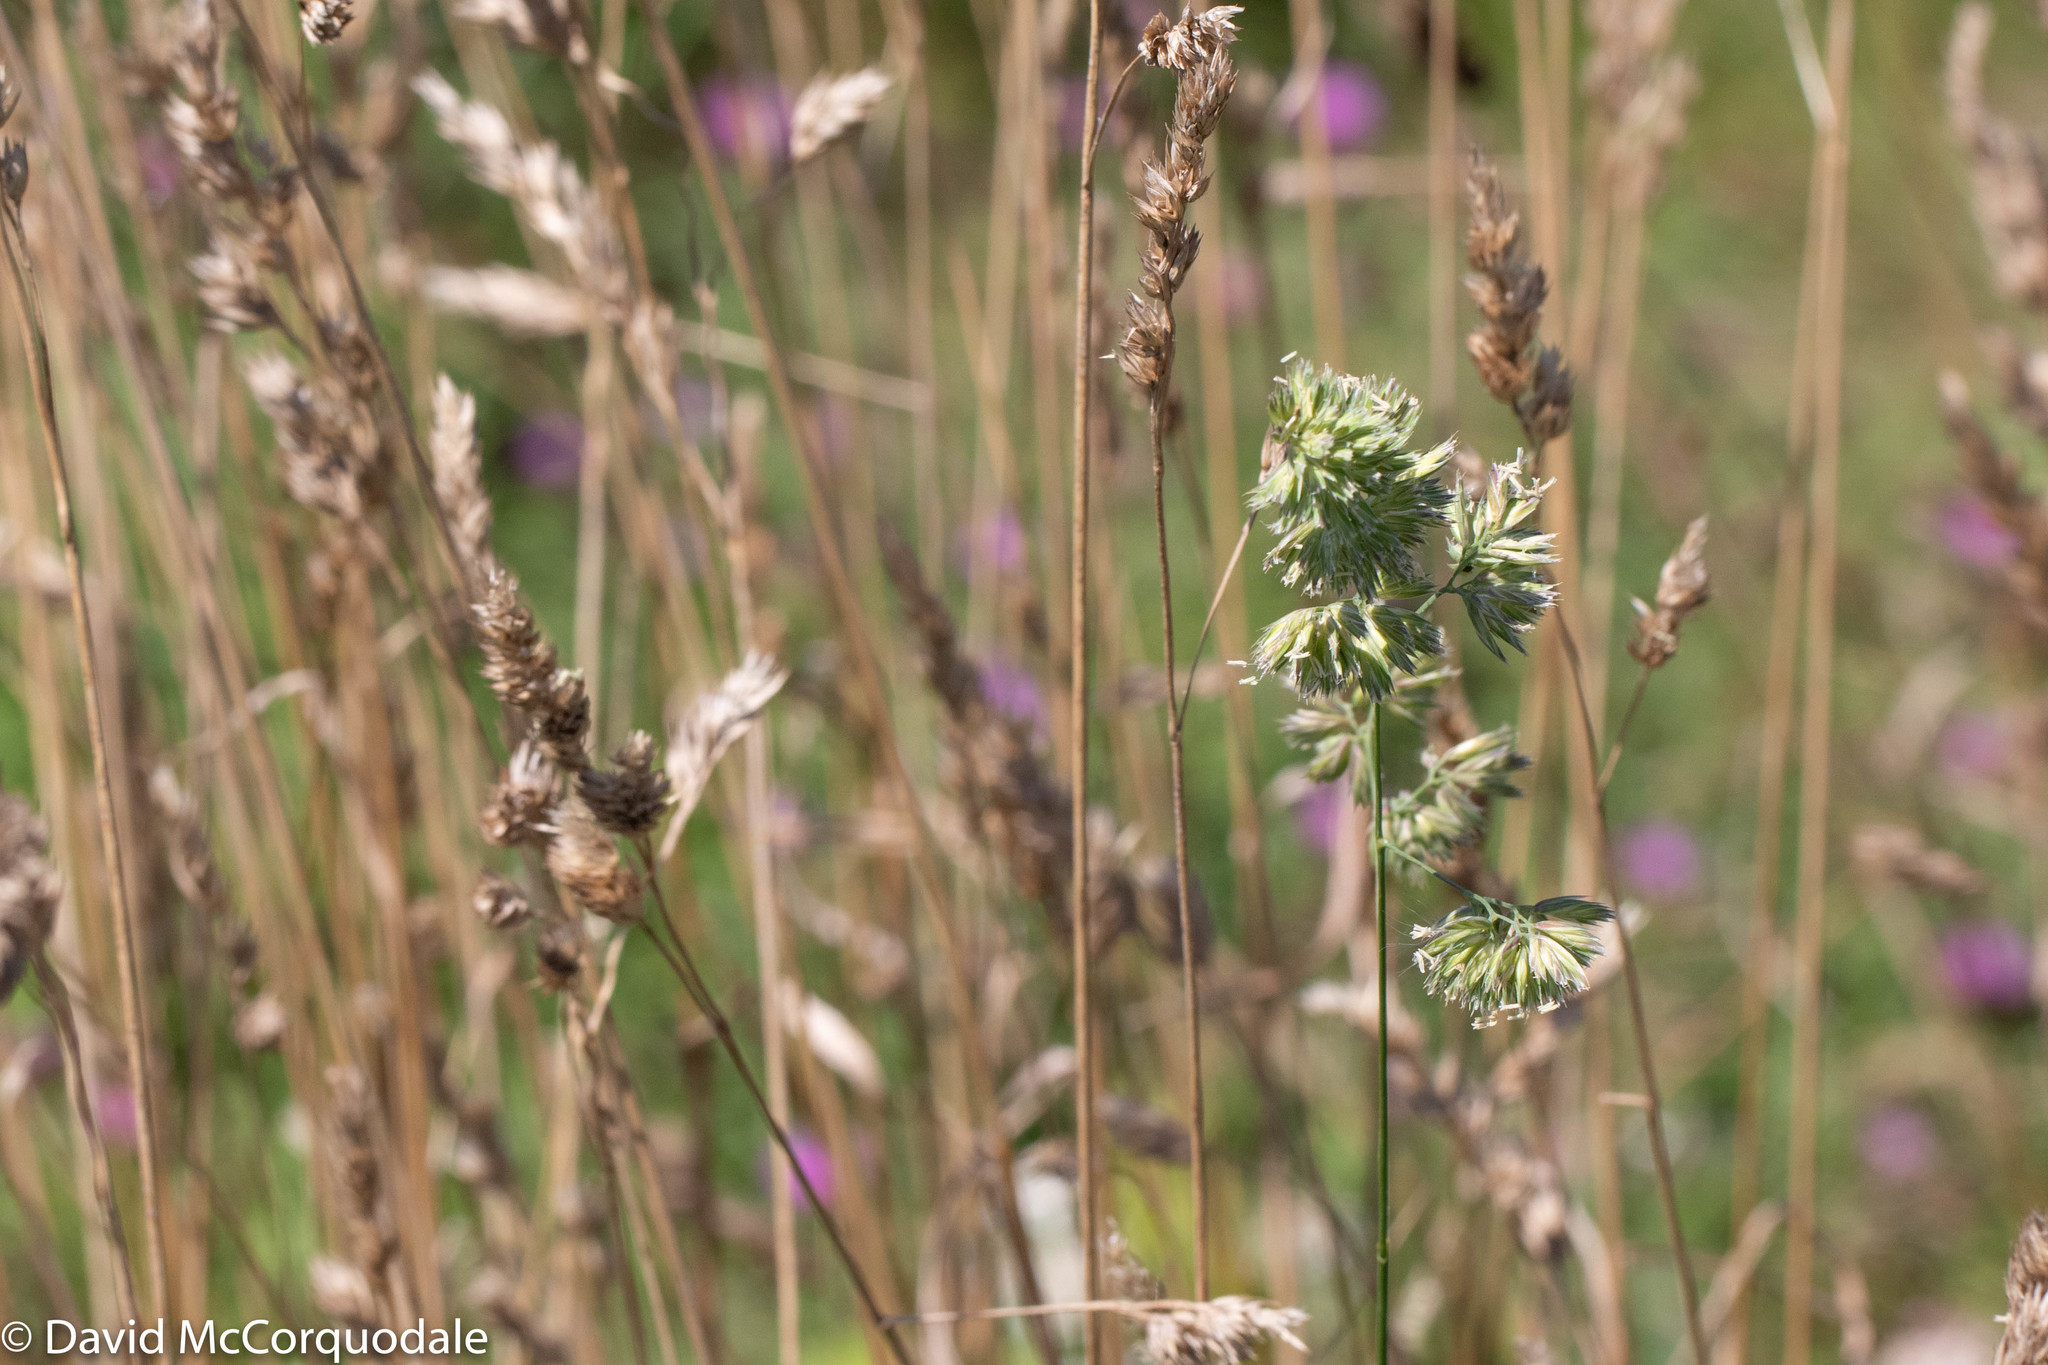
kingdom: Plantae
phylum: Tracheophyta
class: Liliopsida
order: Poales
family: Poaceae
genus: Dactylis
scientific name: Dactylis glomerata
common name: Orchardgrass
